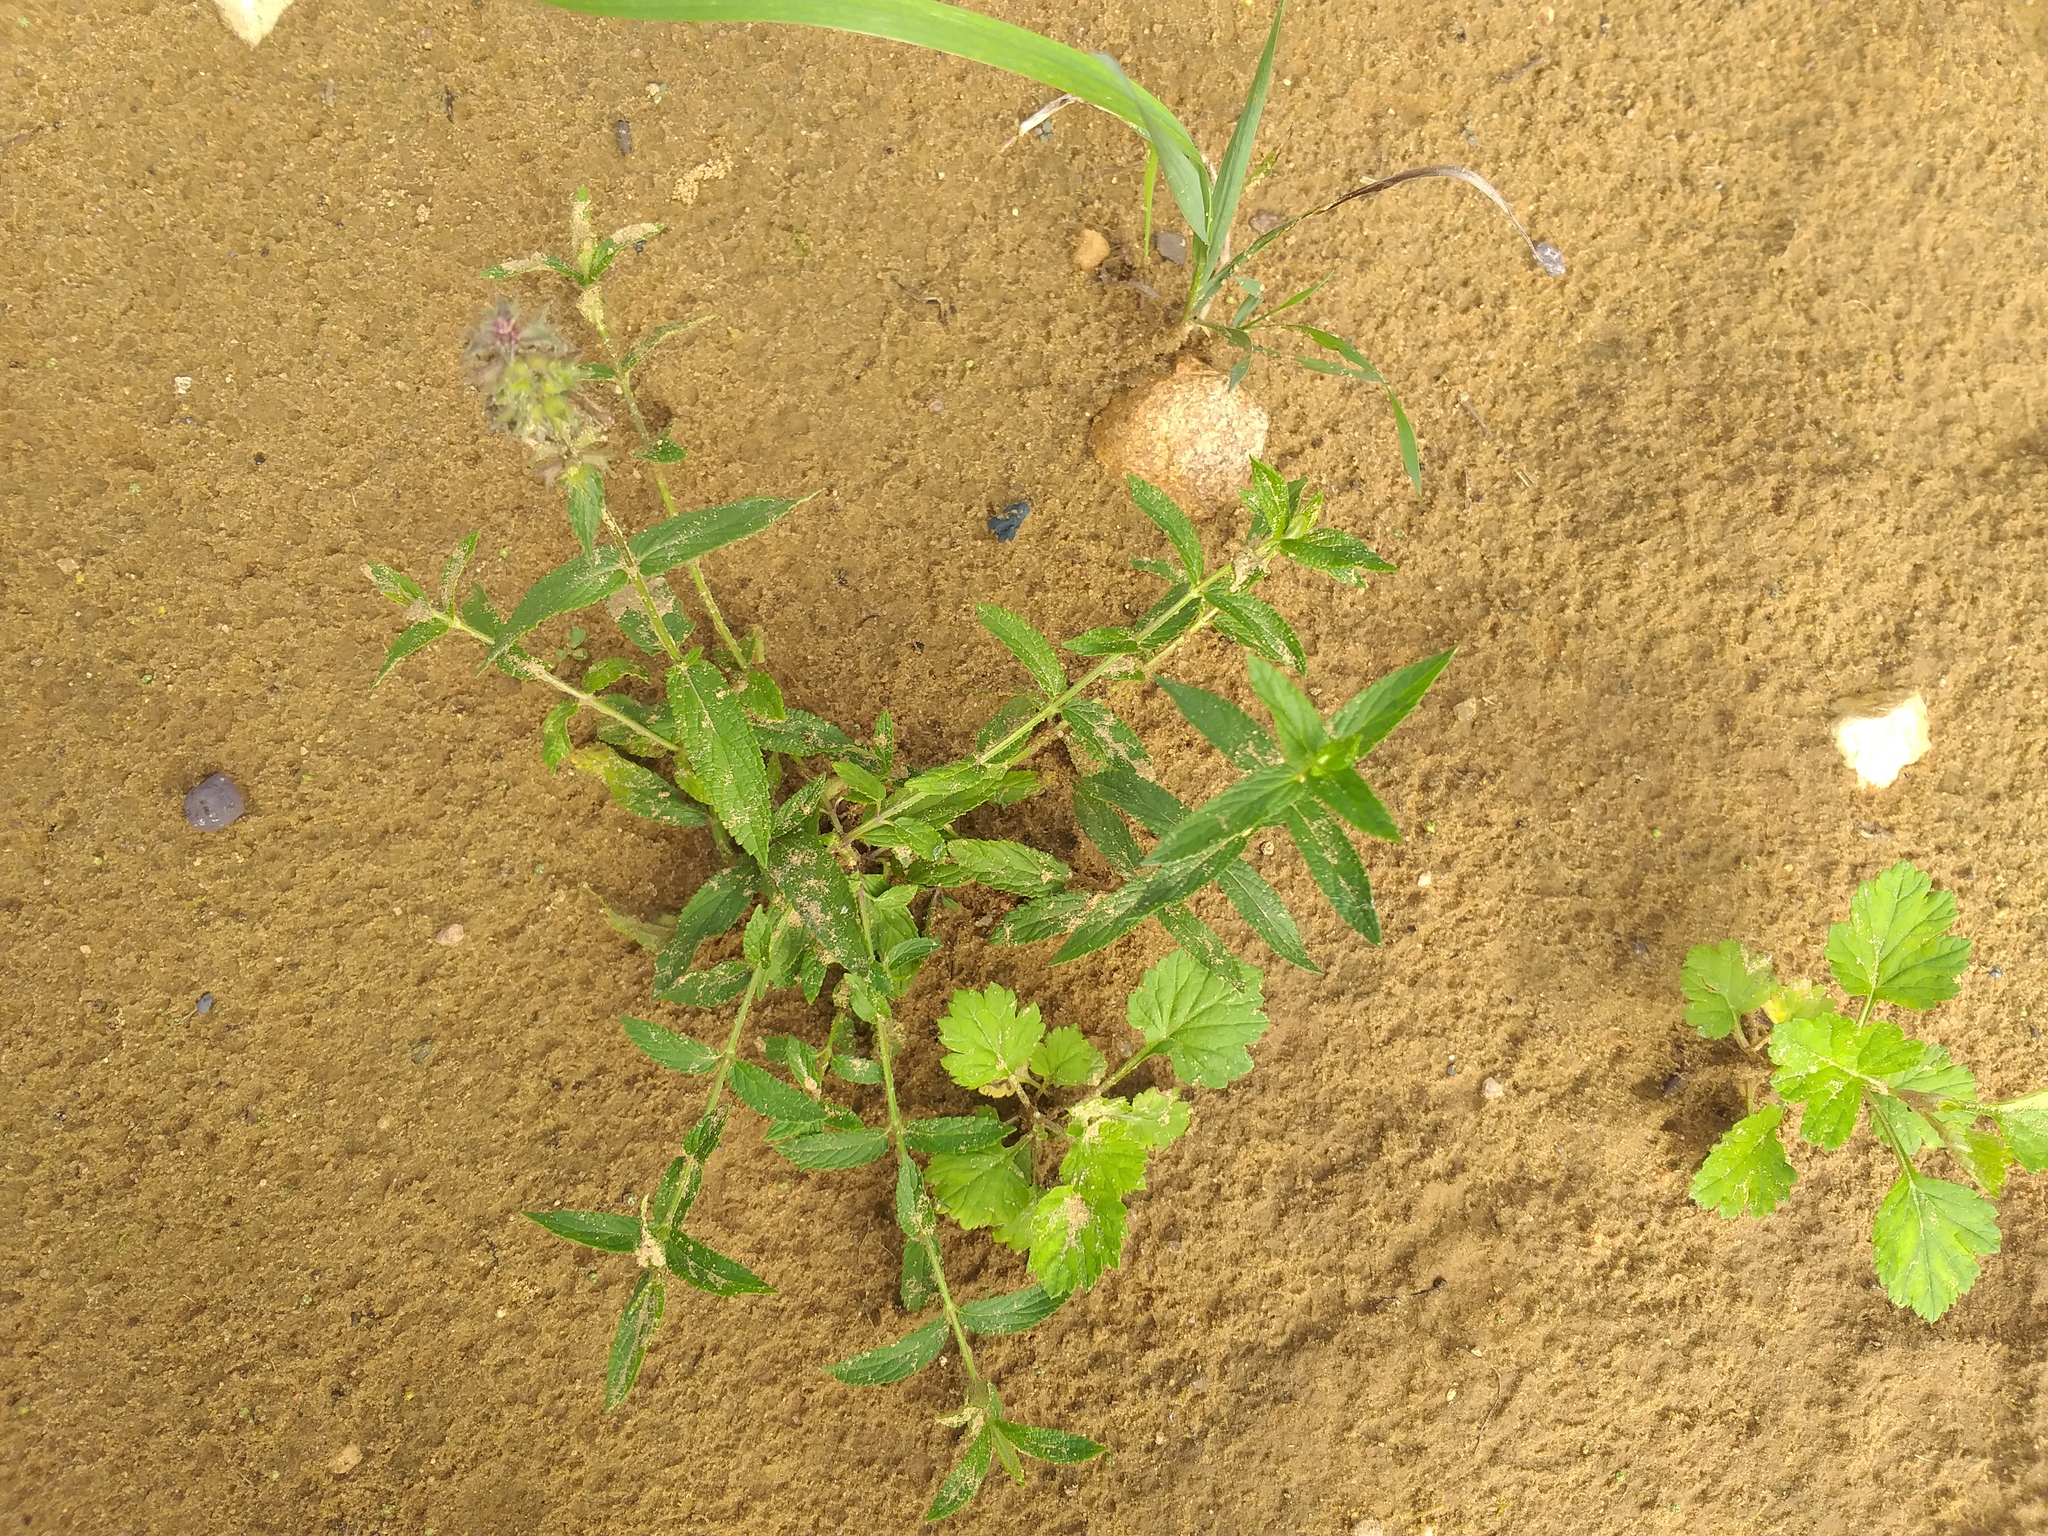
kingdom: Plantae
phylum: Tracheophyta
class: Magnoliopsida
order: Lamiales
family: Lamiaceae
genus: Stachys
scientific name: Stachys palustris
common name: Marsh woundwort
